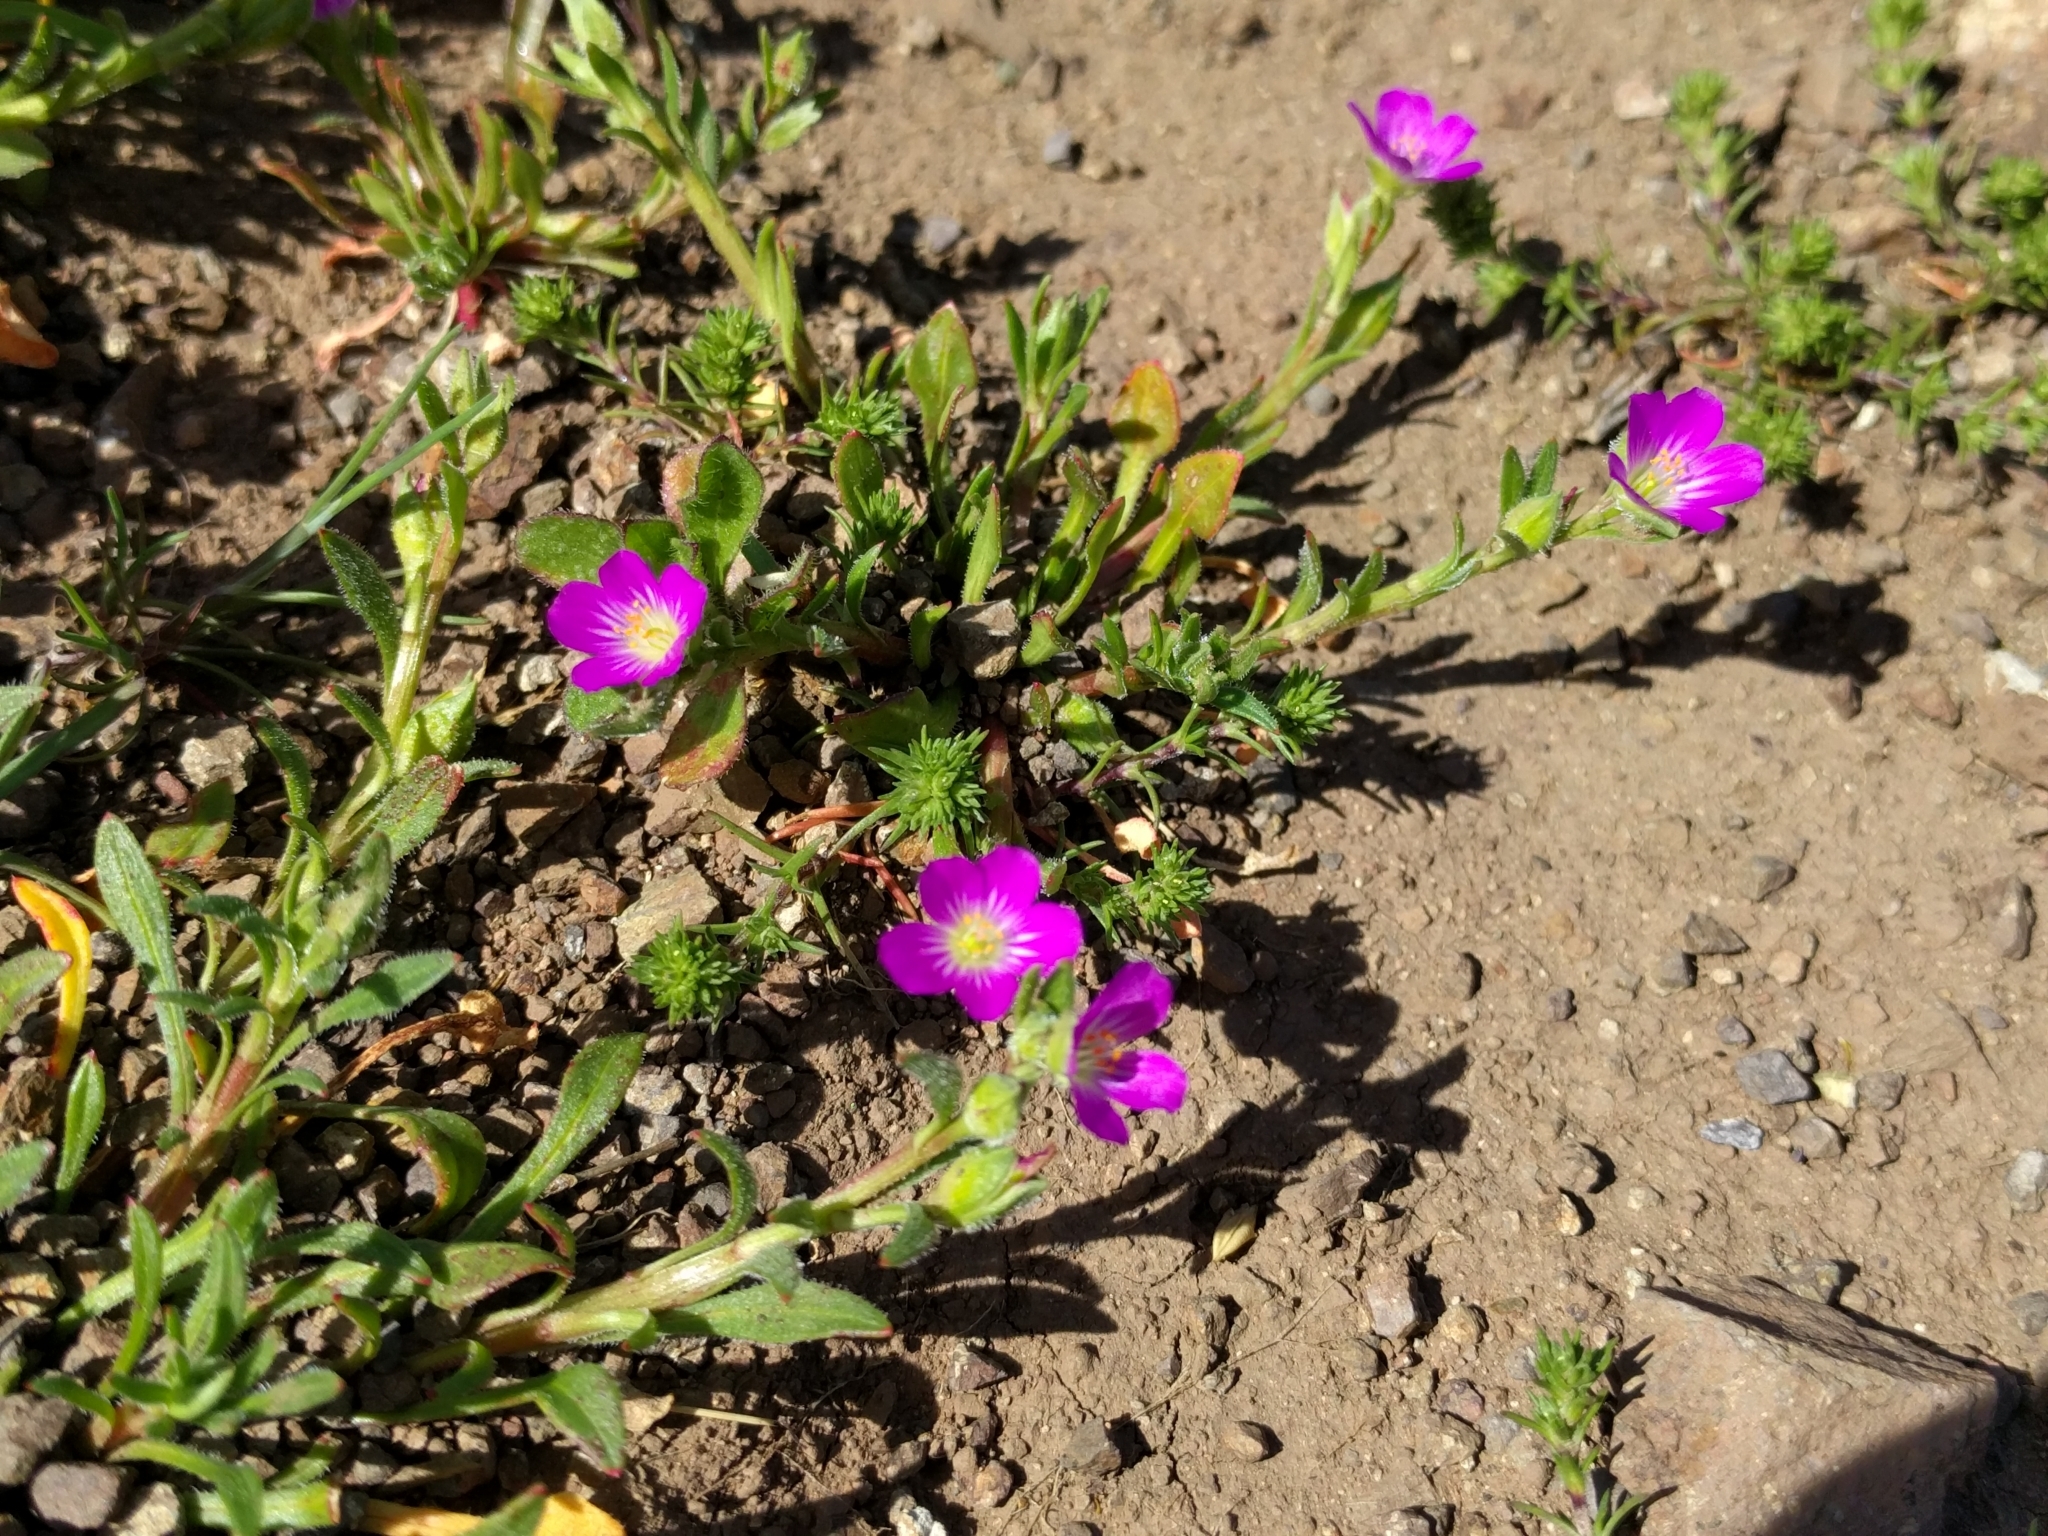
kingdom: Plantae
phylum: Tracheophyta
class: Magnoliopsida
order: Caryophyllales
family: Montiaceae
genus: Calandrinia
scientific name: Calandrinia menziesii
